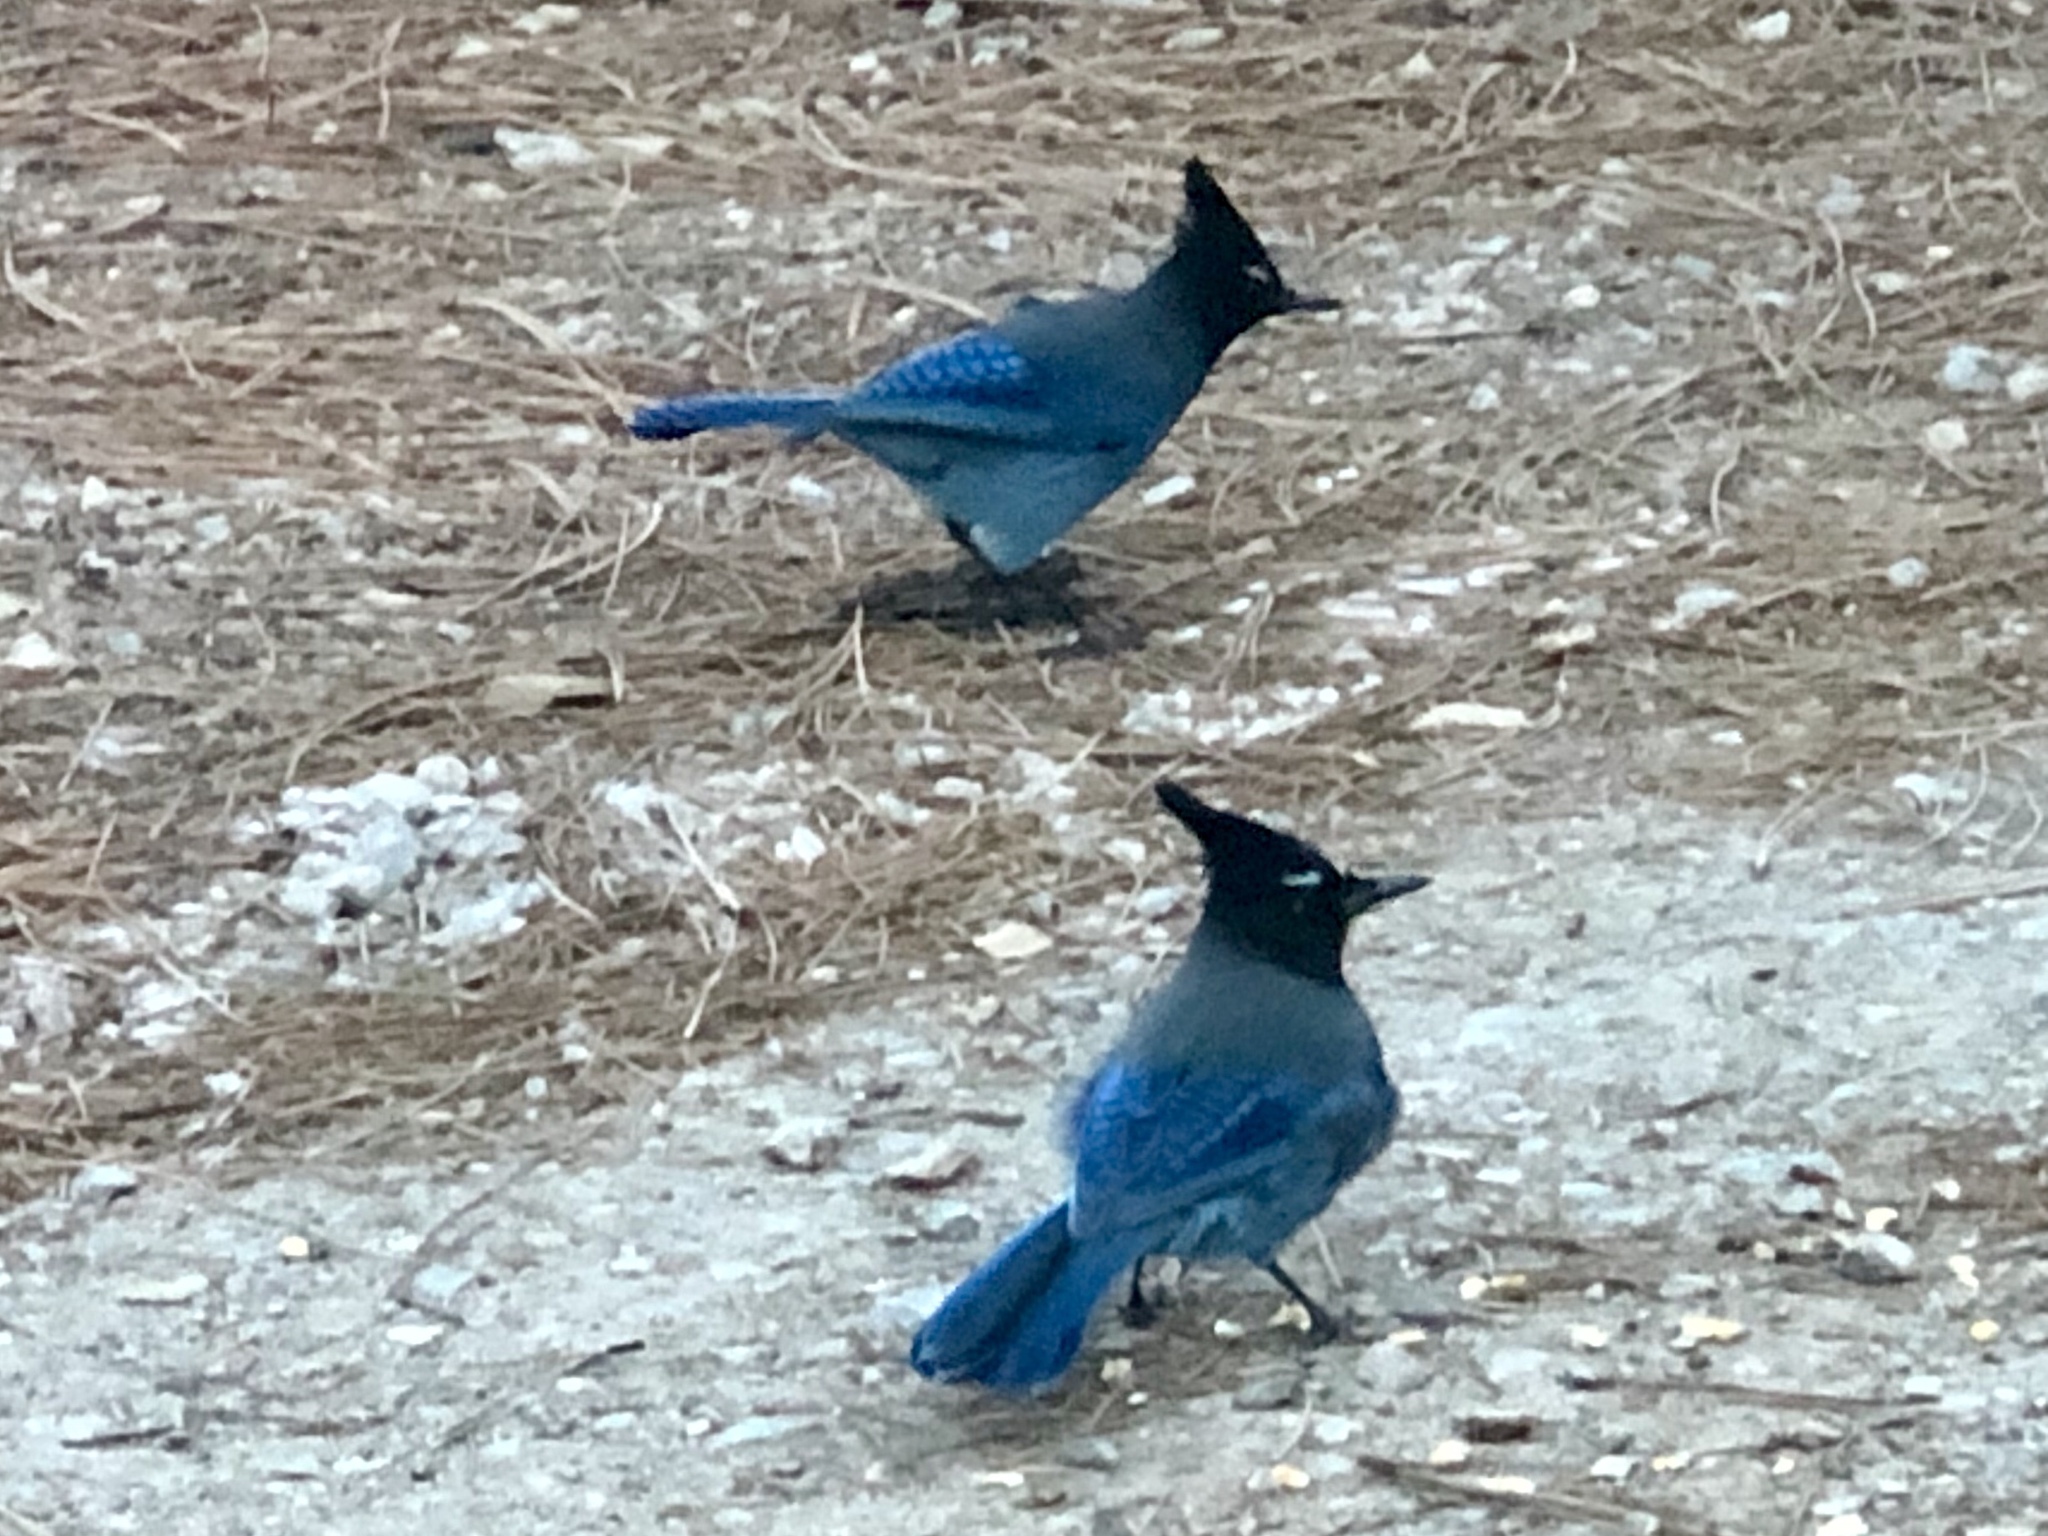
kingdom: Animalia
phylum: Chordata
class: Aves
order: Passeriformes
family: Corvidae
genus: Cyanocitta
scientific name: Cyanocitta stelleri
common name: Steller's jay
